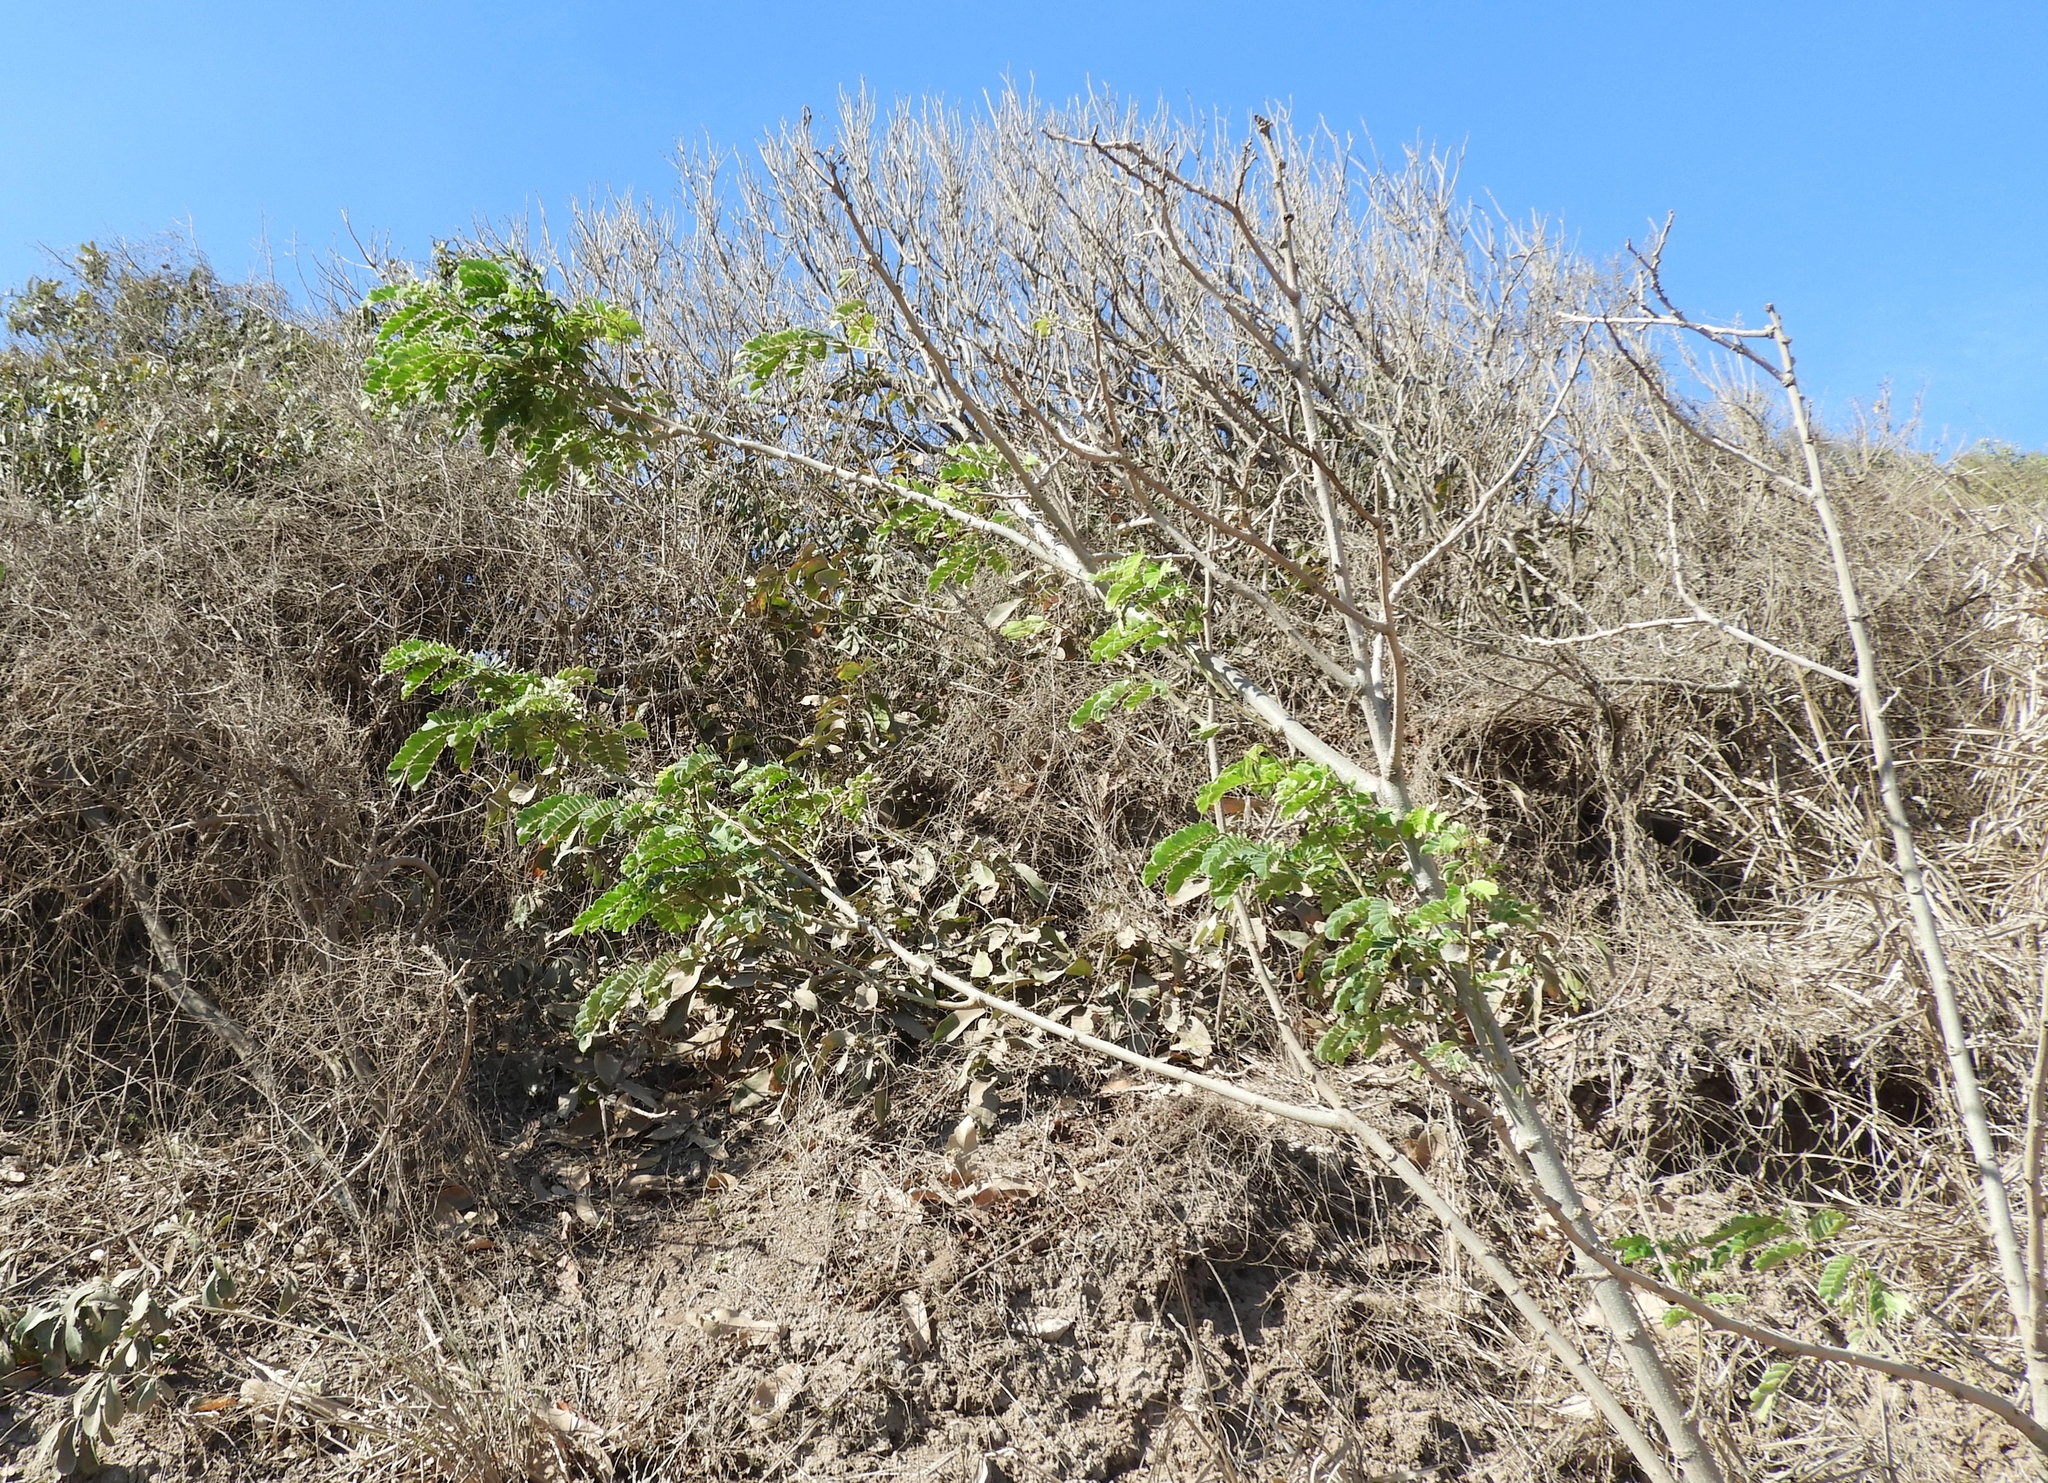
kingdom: Plantae
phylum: Tracheophyta
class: Magnoliopsida
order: Fabales
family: Fabaceae
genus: Albizia
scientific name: Albizia occidentalis
